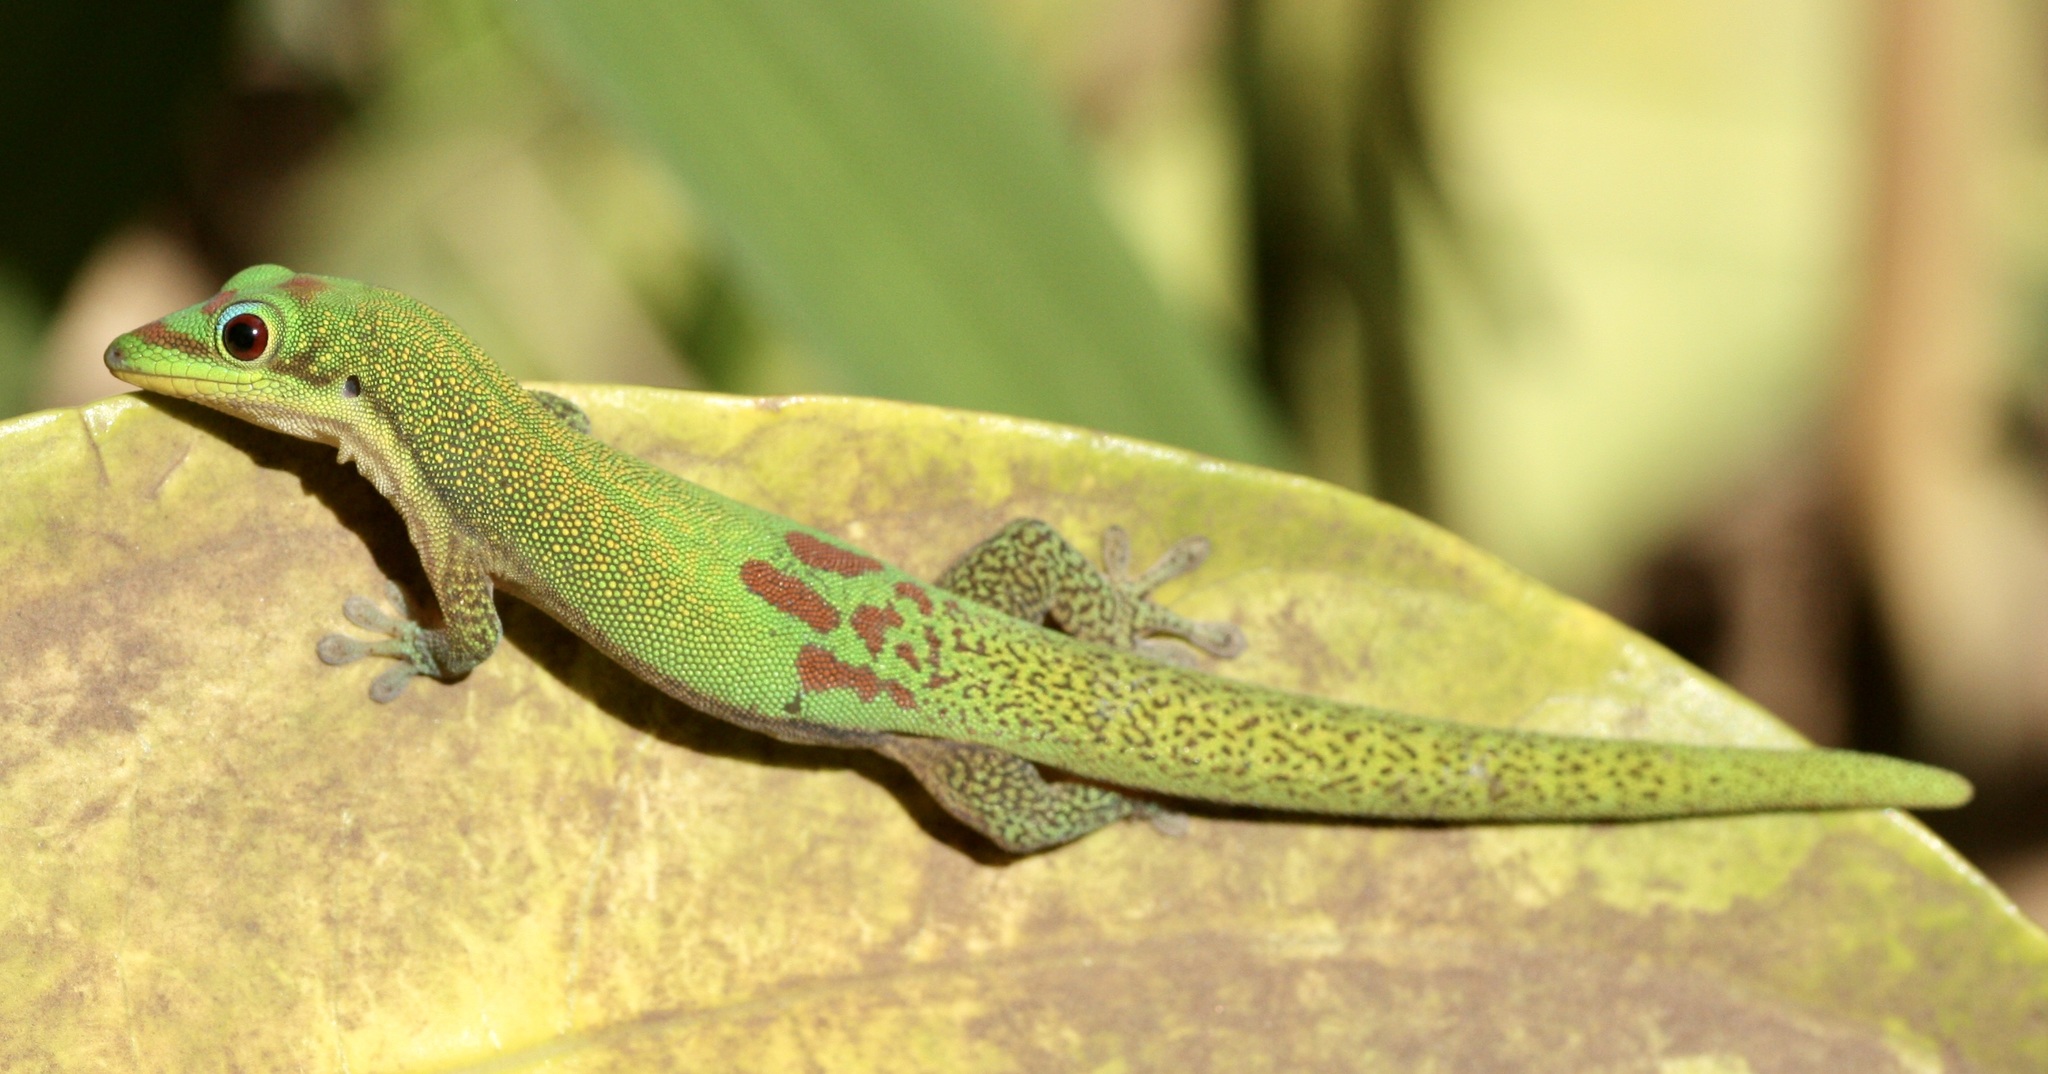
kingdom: Animalia
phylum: Chordata
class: Squamata
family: Gekkonidae
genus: Phelsuma
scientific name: Phelsuma laticauda
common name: Gold dust day gecko
